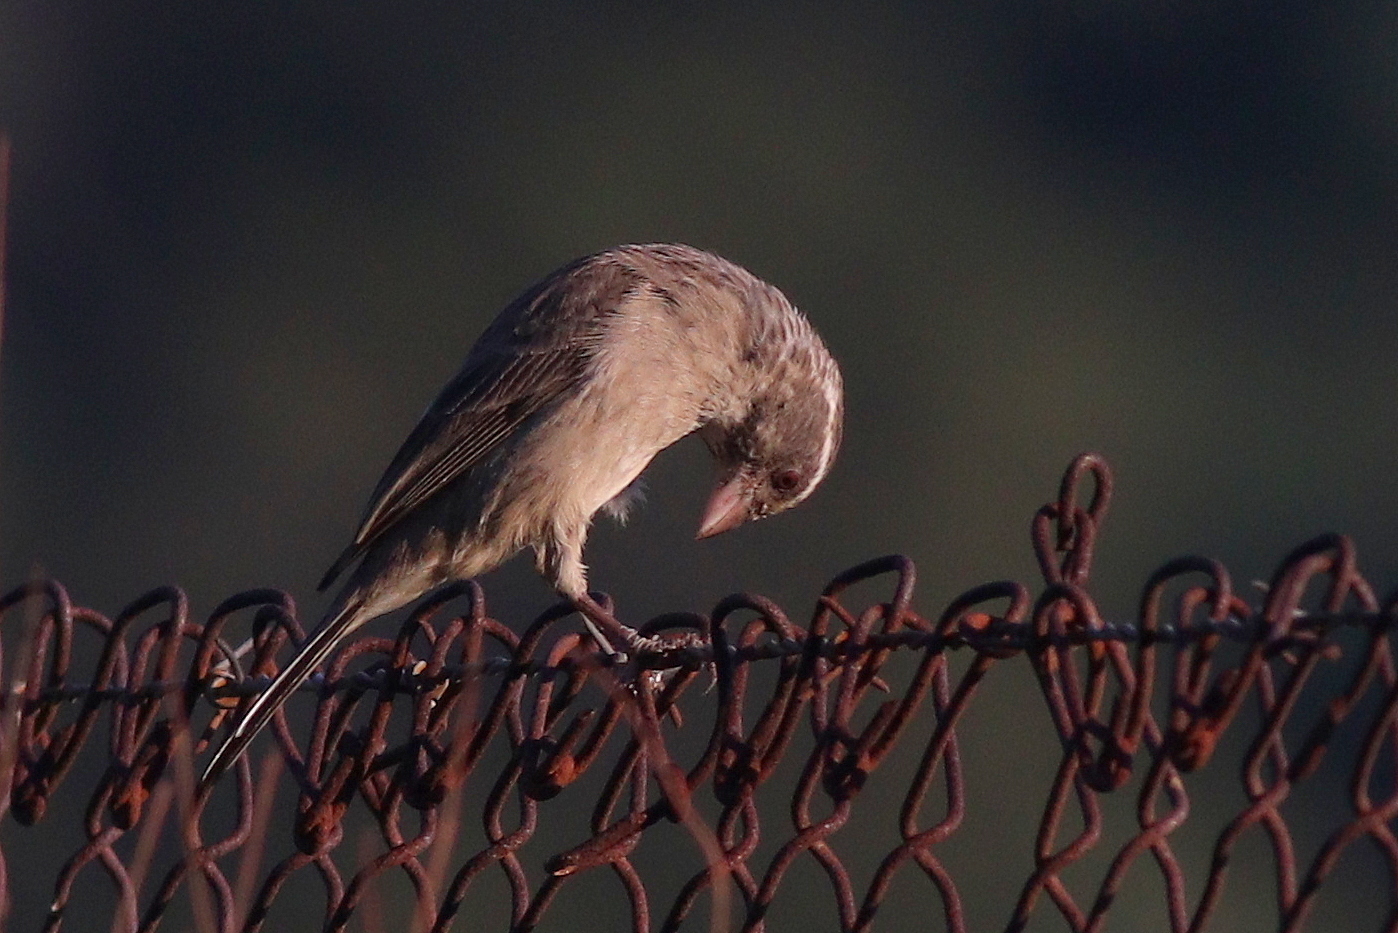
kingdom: Animalia
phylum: Chordata
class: Aves
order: Passeriformes
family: Fringillidae
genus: Crithagra
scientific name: Crithagra gularis
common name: Streaky-headed seedeater
